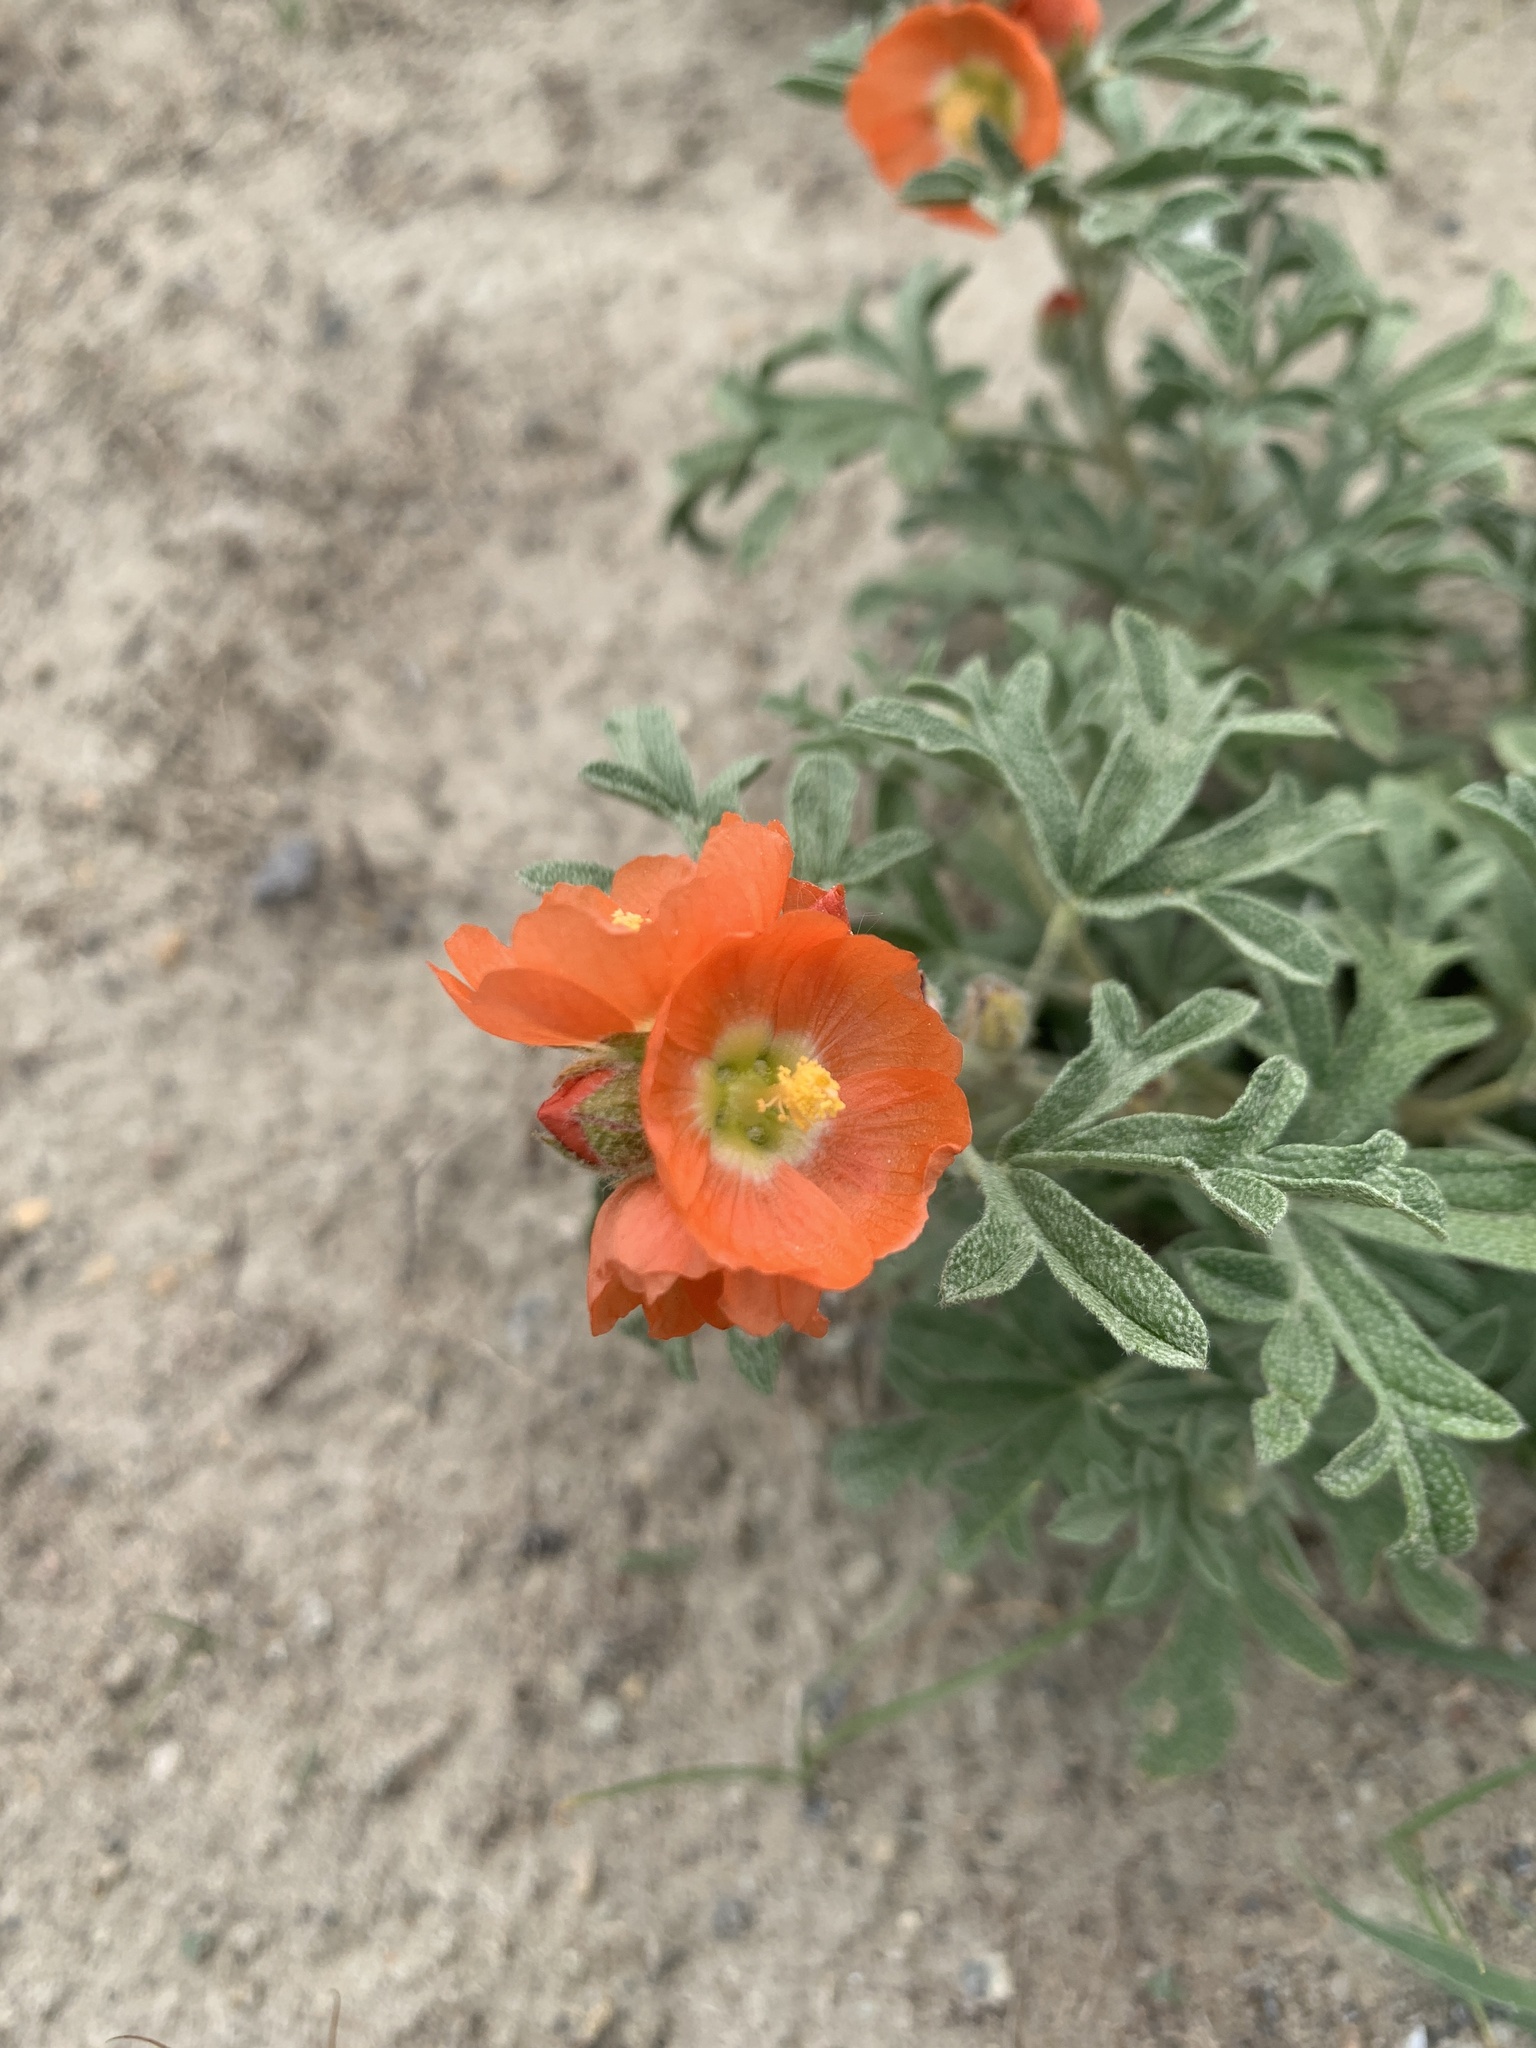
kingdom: Plantae
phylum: Tracheophyta
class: Magnoliopsida
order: Malvales
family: Malvaceae
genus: Sphaeralcea
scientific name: Sphaeralcea coccinea
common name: Moss-rose
